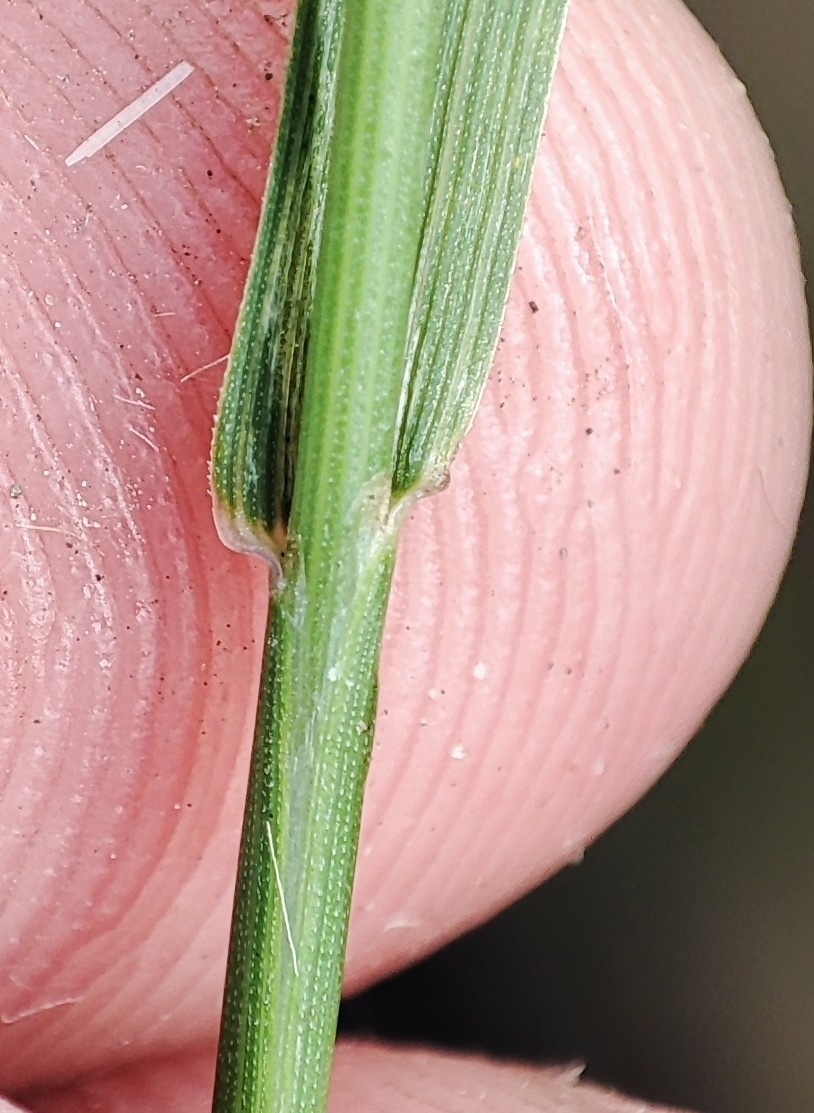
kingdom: Plantae
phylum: Tracheophyta
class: Liliopsida
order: Poales
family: Poaceae
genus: Agrostis
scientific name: Agrostis gigantea
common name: Black bent
